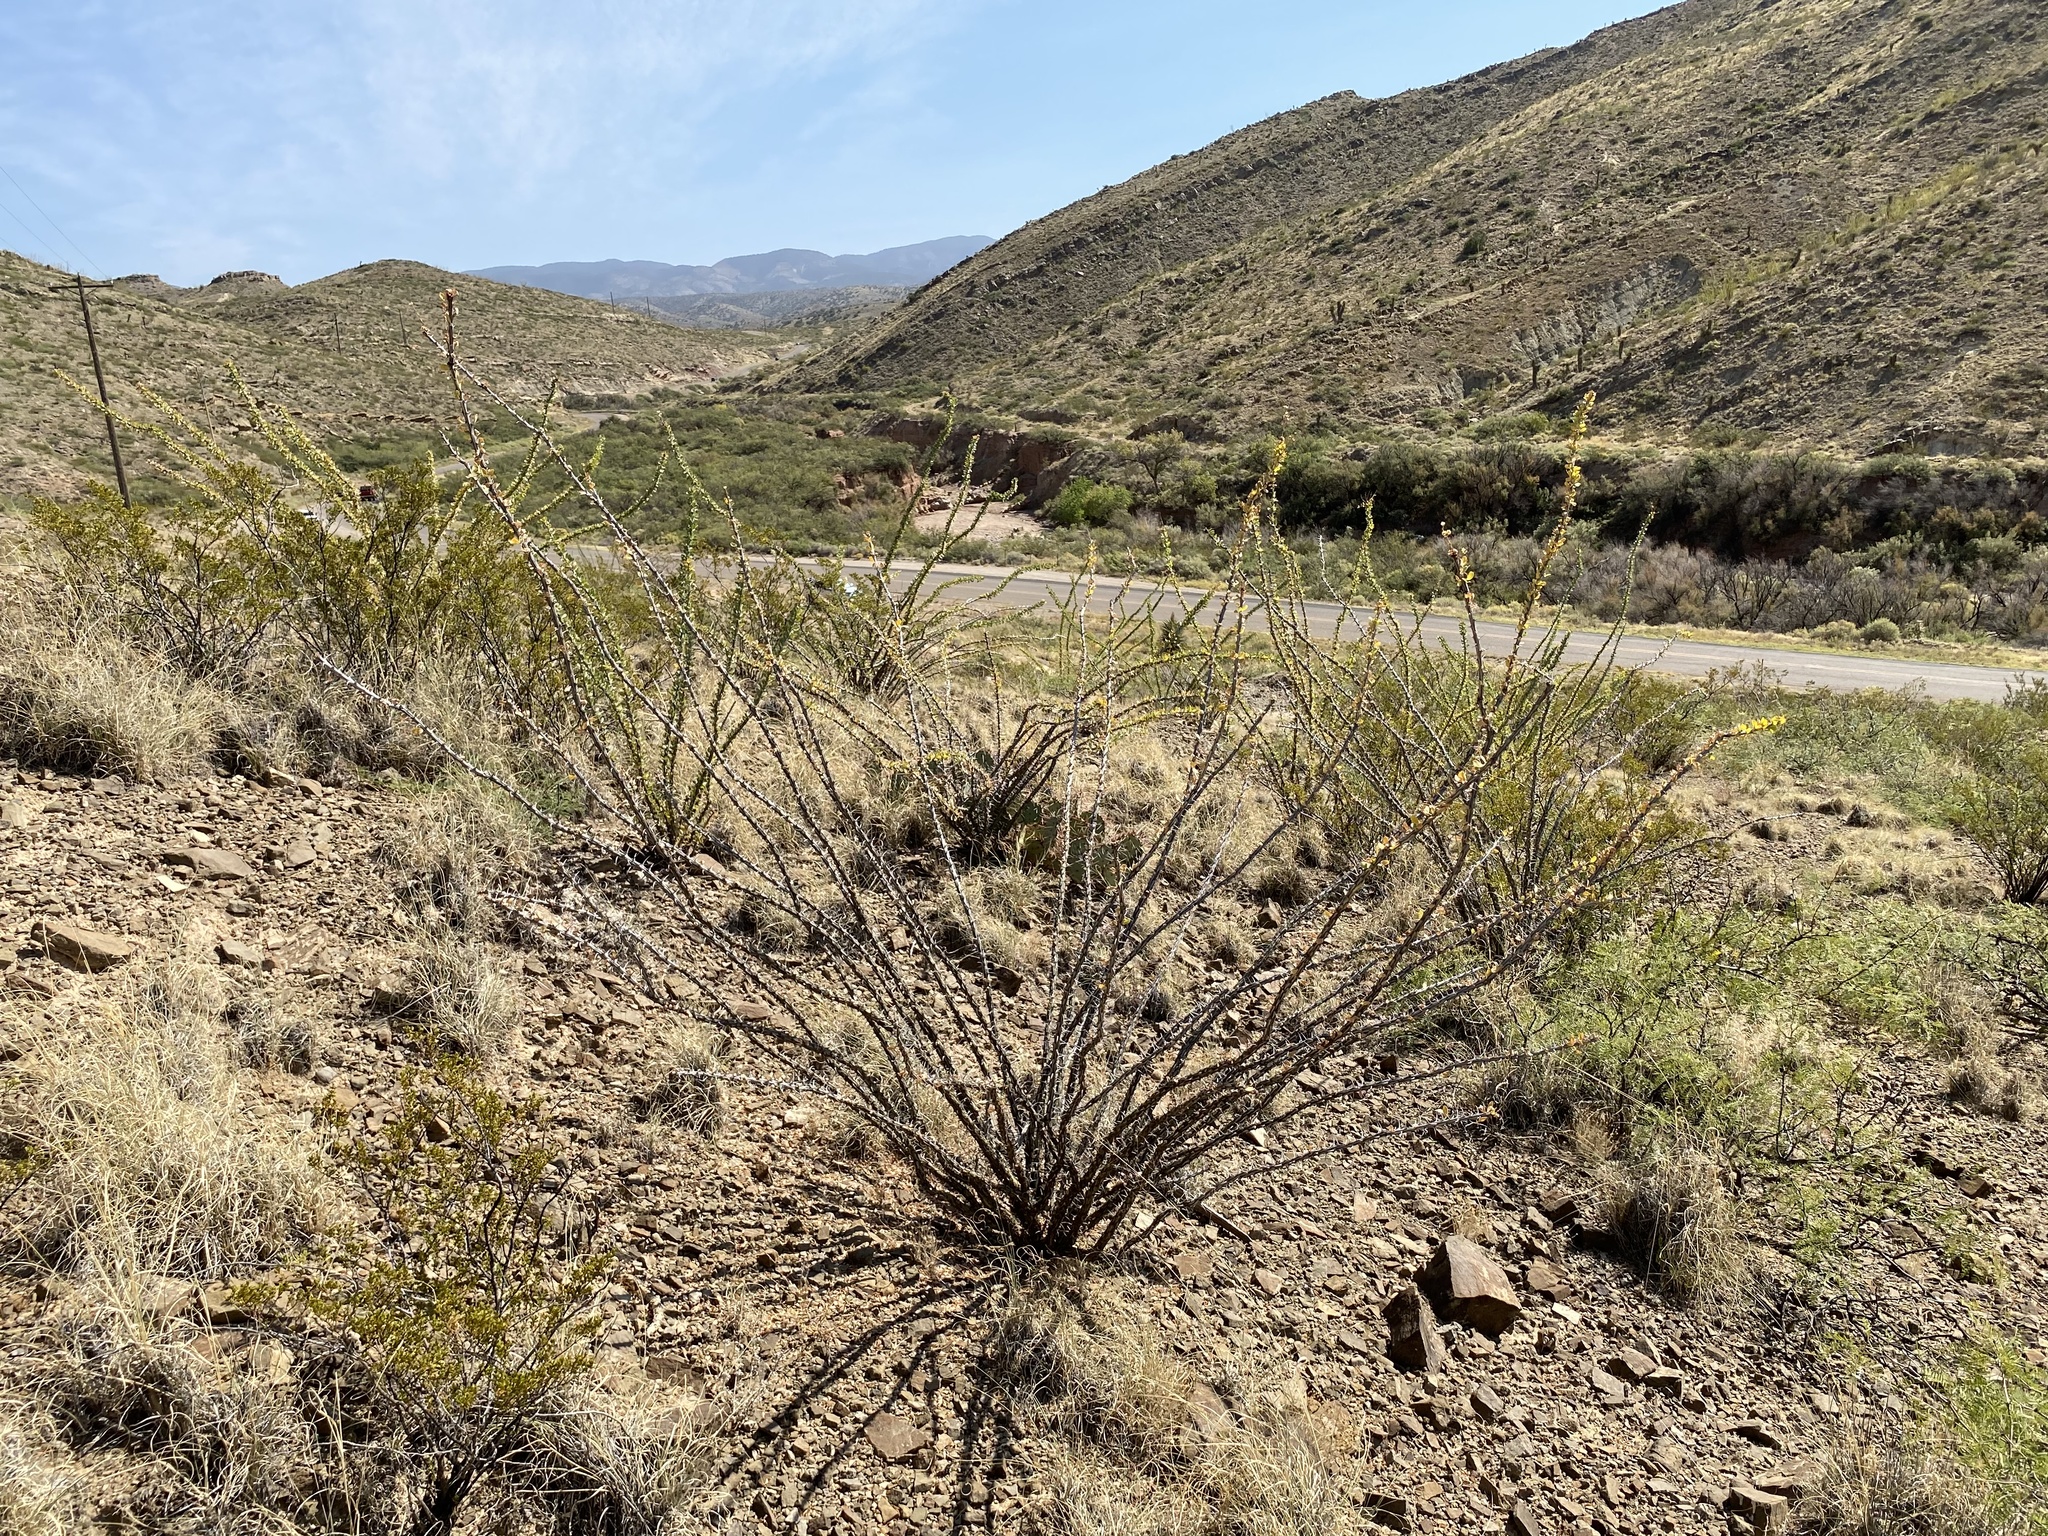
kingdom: Plantae
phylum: Tracheophyta
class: Magnoliopsida
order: Ericales
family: Fouquieriaceae
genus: Fouquieria
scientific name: Fouquieria splendens
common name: Vine-cactus
